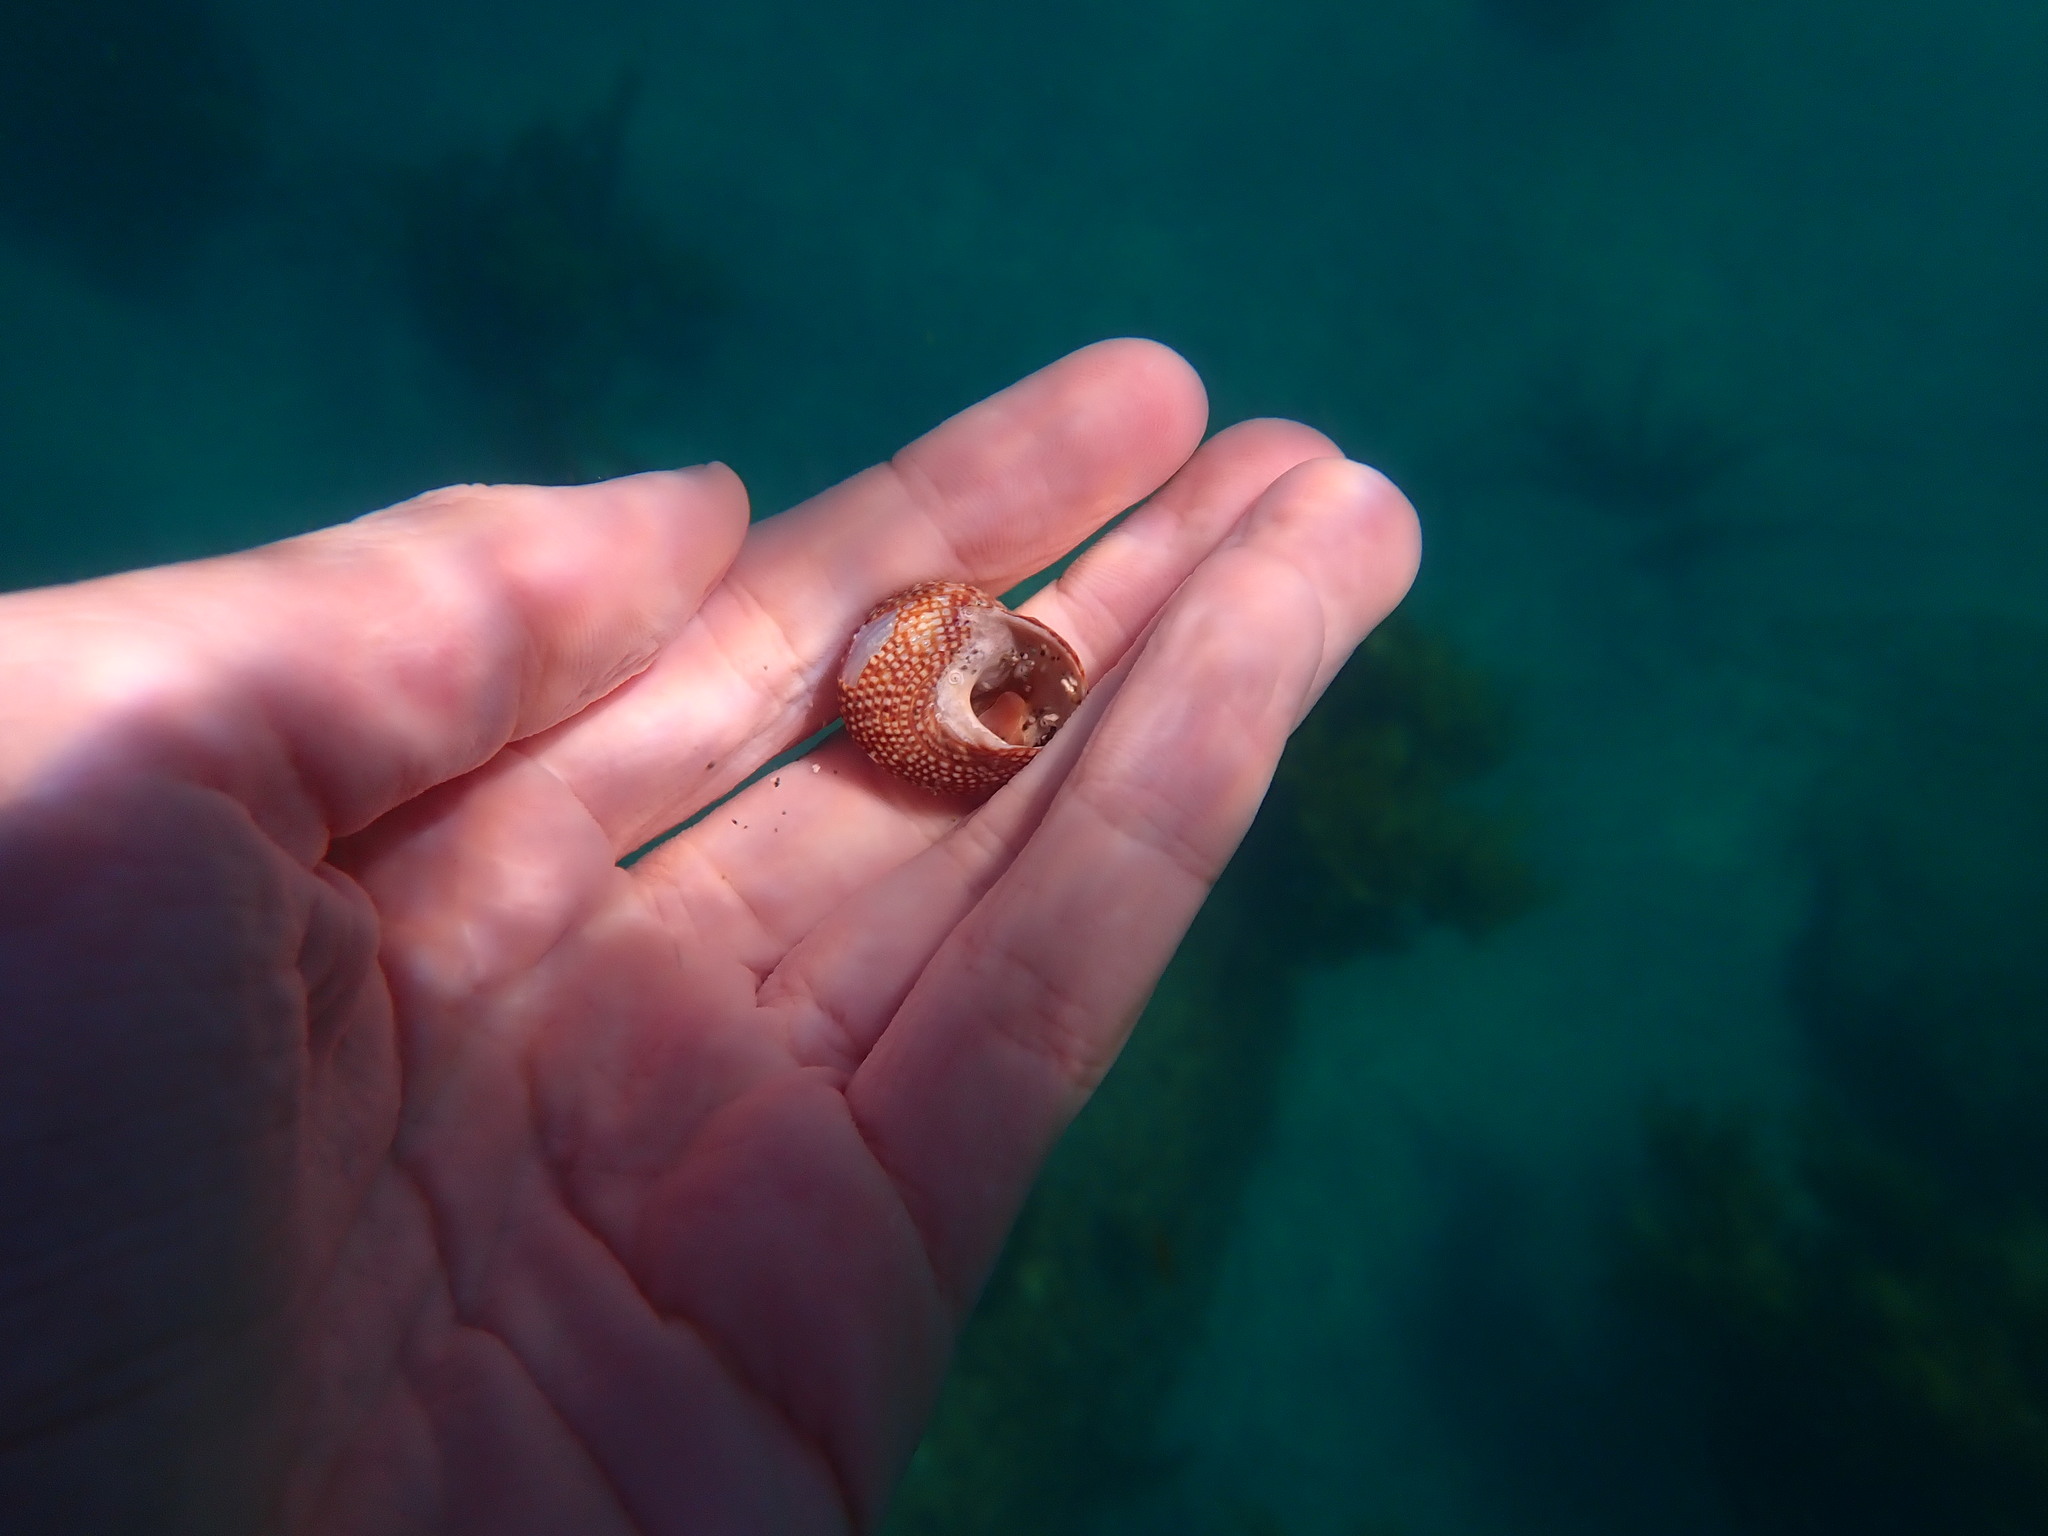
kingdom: Animalia
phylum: Mollusca
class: Gastropoda
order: Trochida
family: Calliostomatidae
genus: Maurea
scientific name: Maurea punctulata
